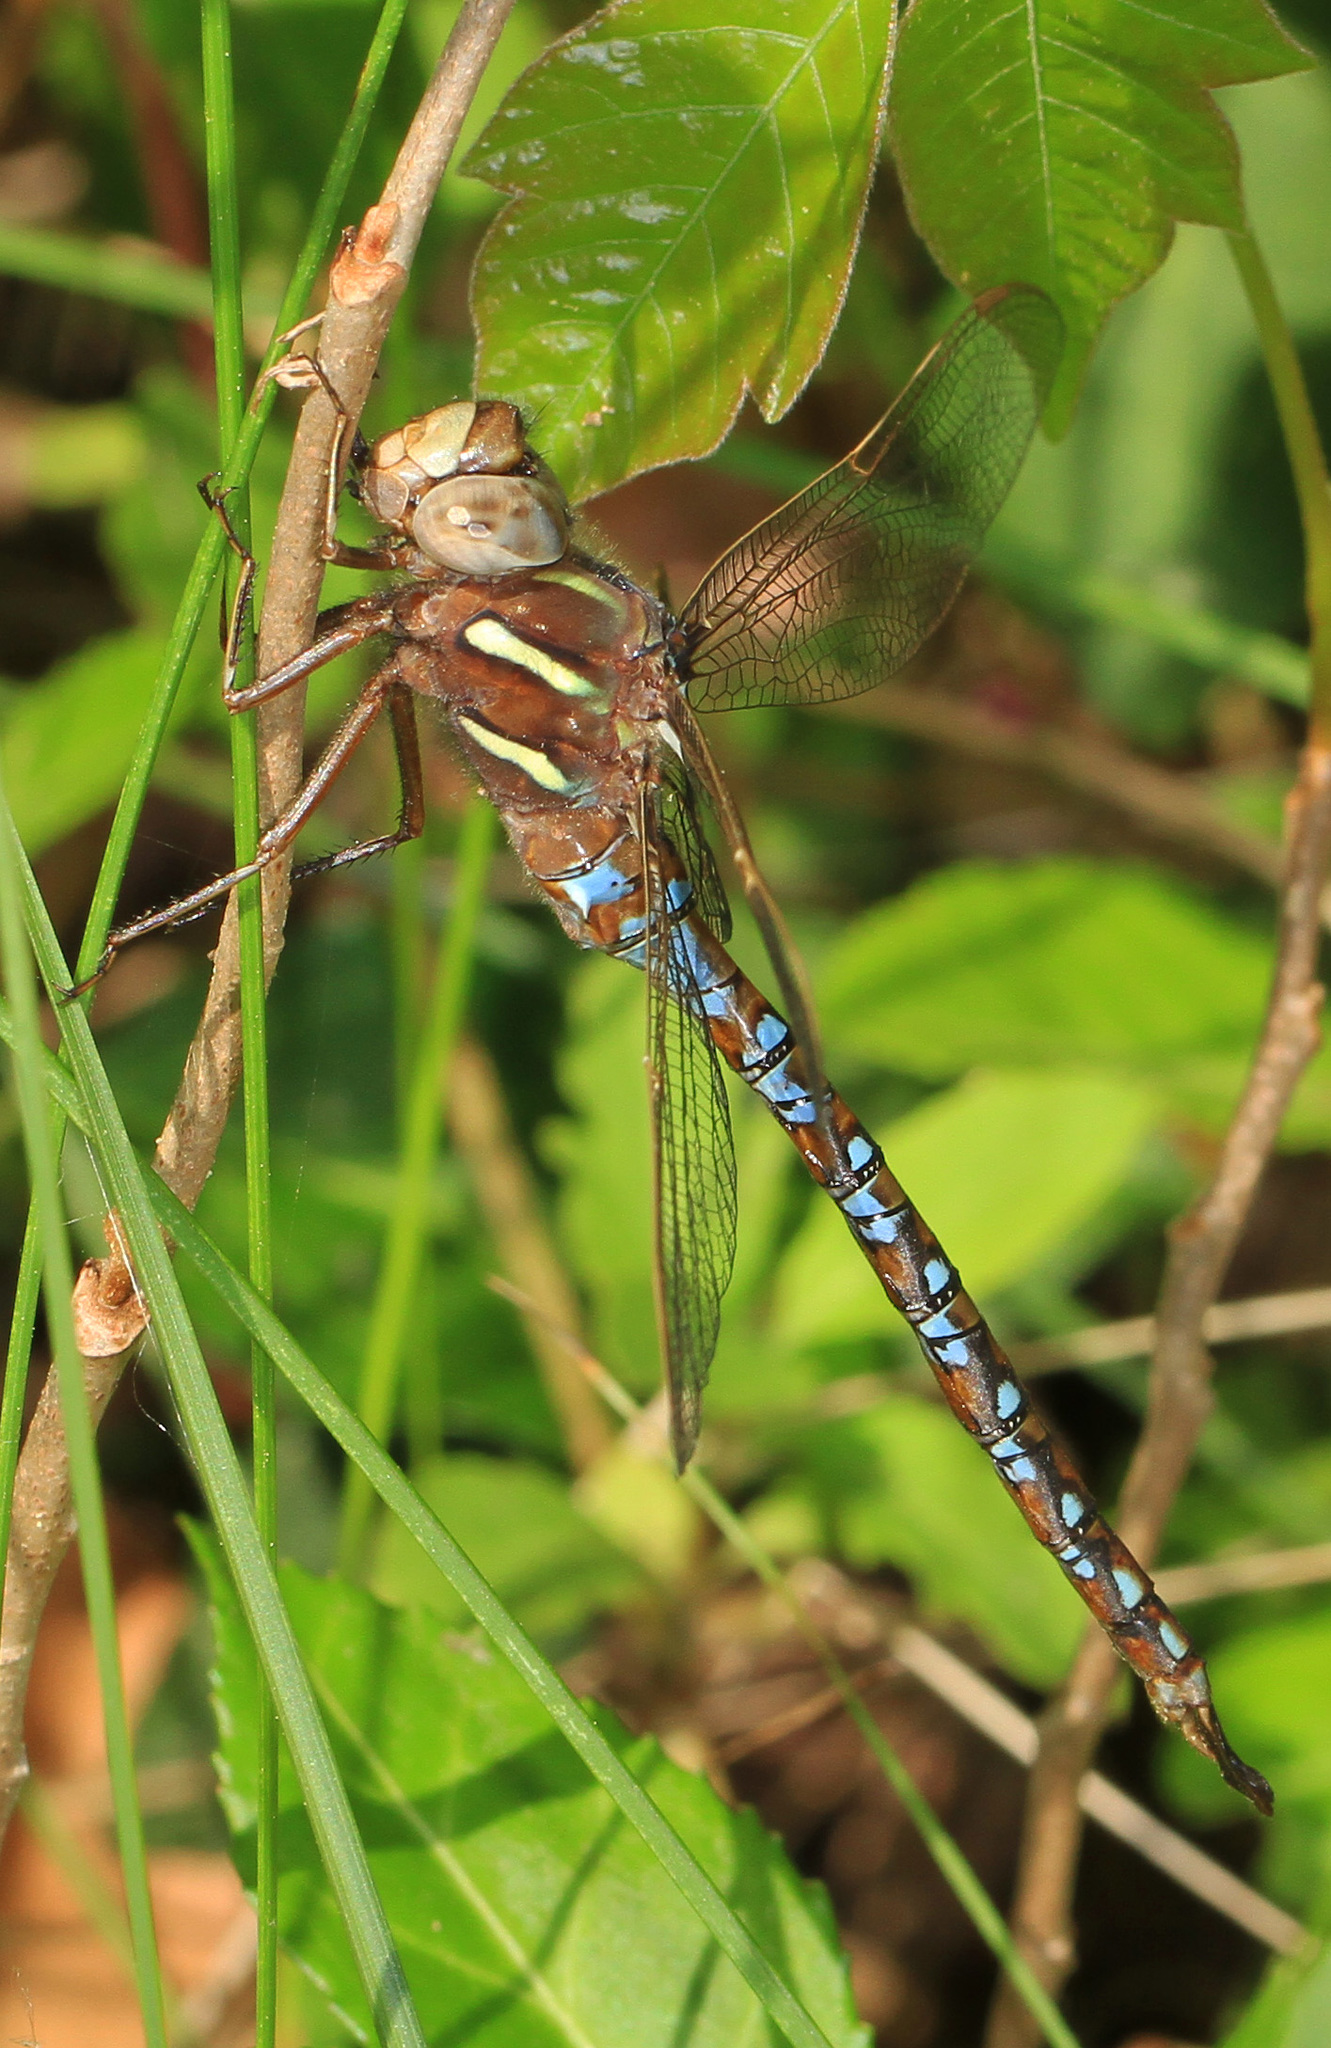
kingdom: Animalia
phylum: Arthropoda
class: Insecta
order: Odonata
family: Aeshnidae
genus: Basiaeschna
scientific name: Basiaeschna janata
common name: Springtime darner
